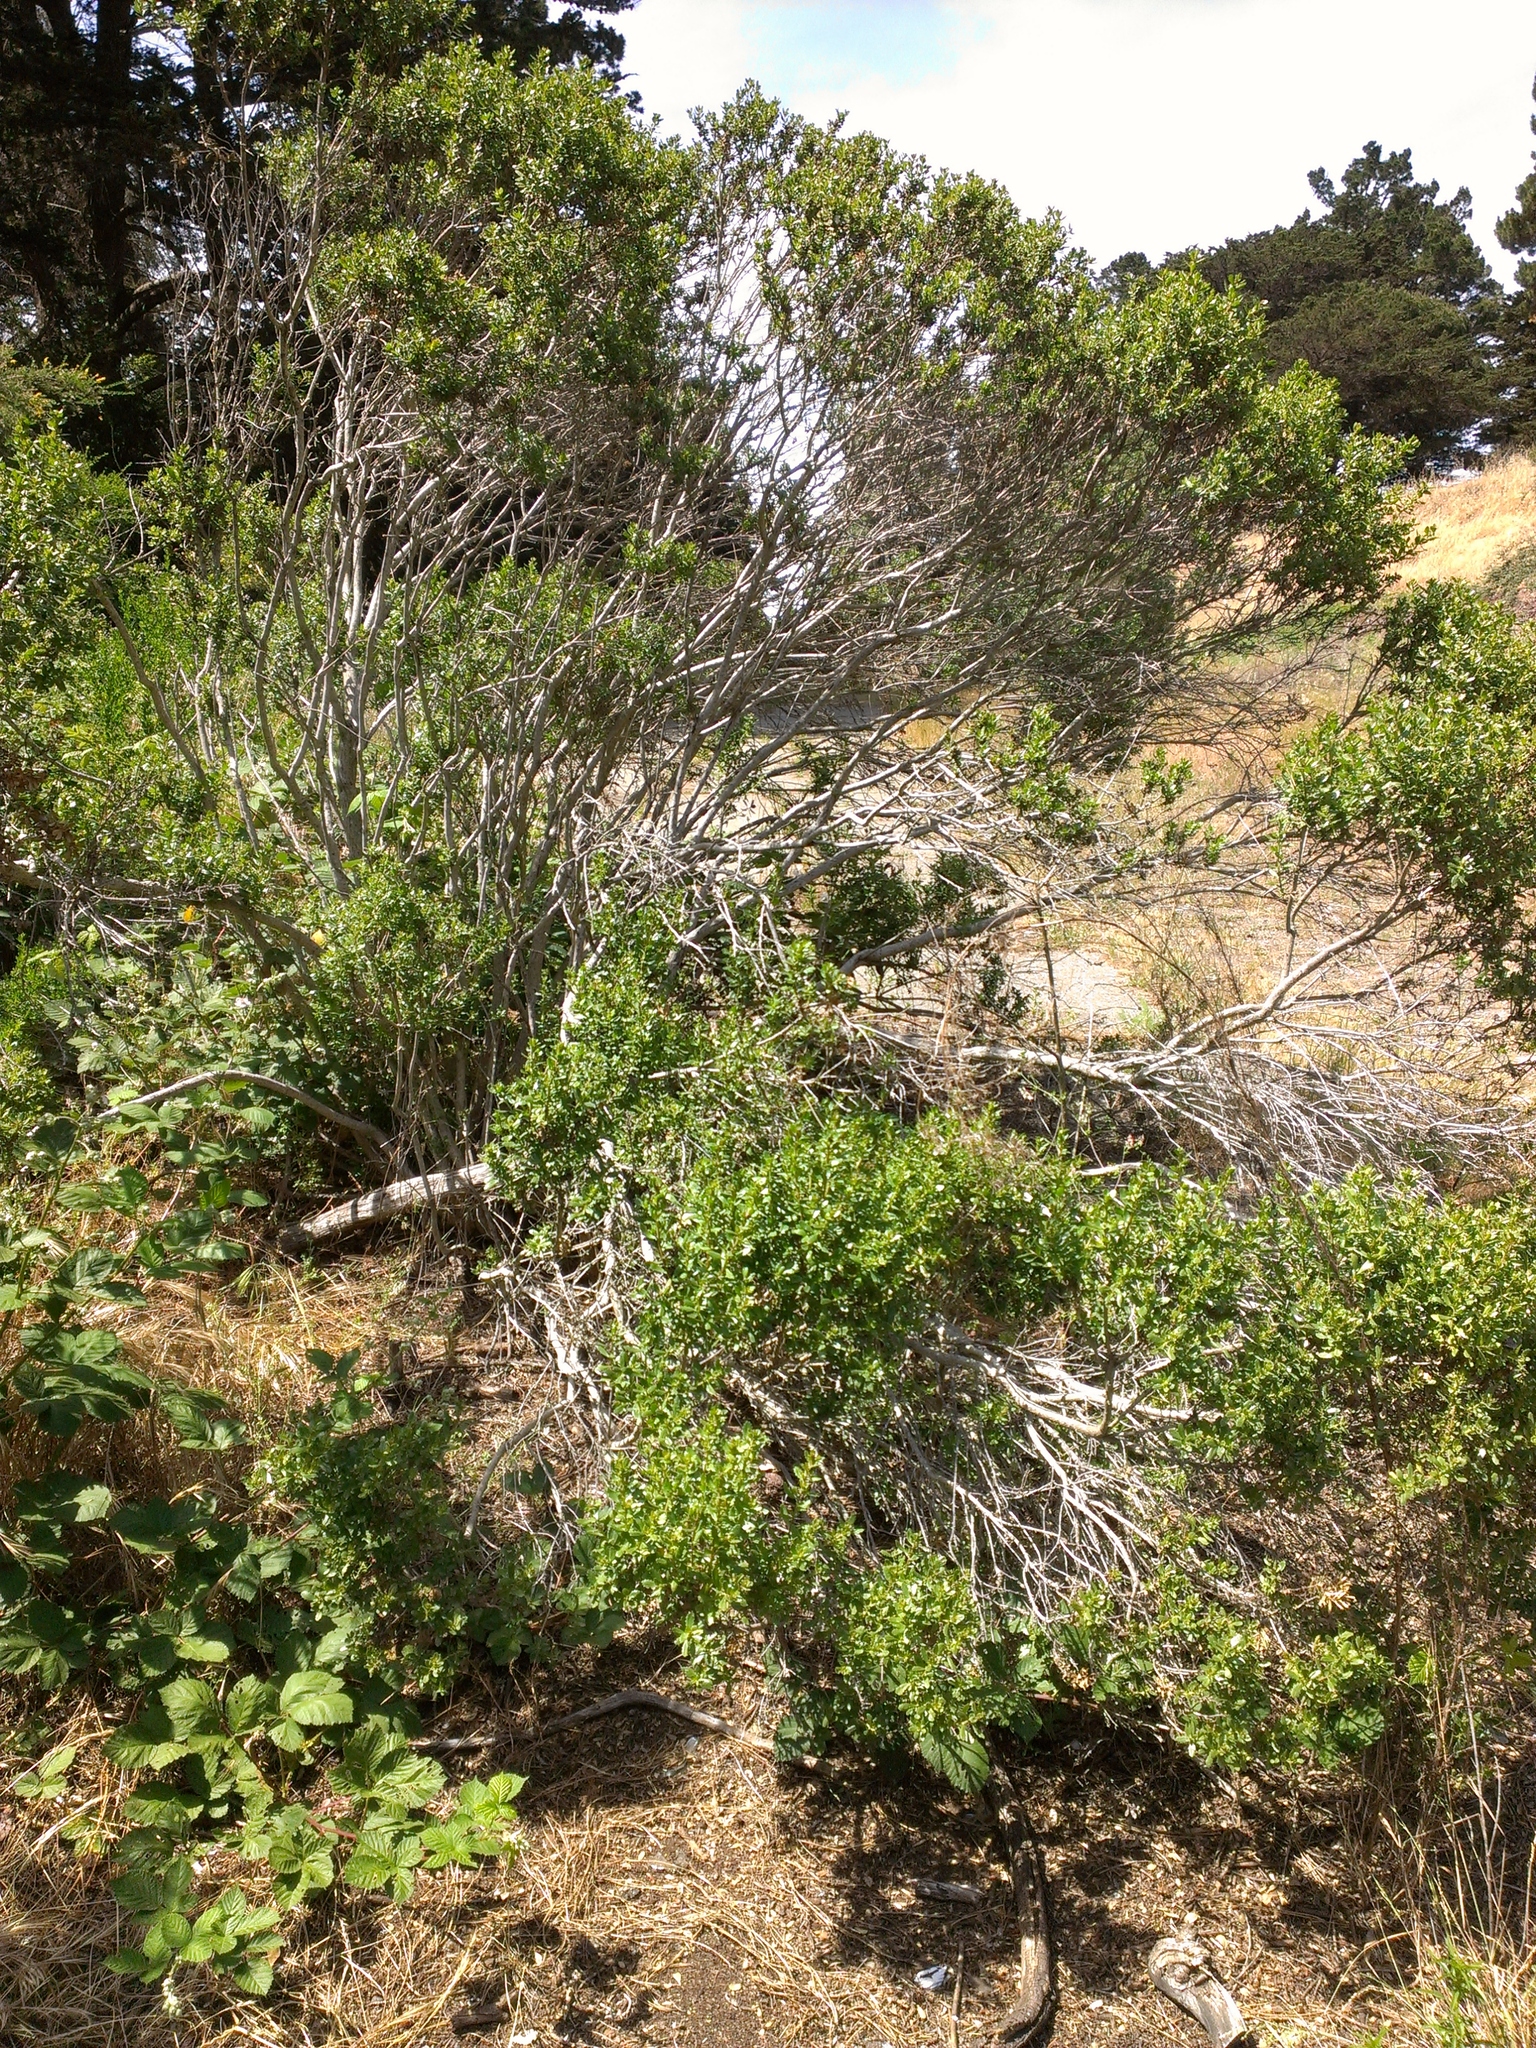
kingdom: Plantae
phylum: Tracheophyta
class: Magnoliopsida
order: Asterales
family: Asteraceae
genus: Baccharis
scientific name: Baccharis pilularis
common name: Coyotebrush
